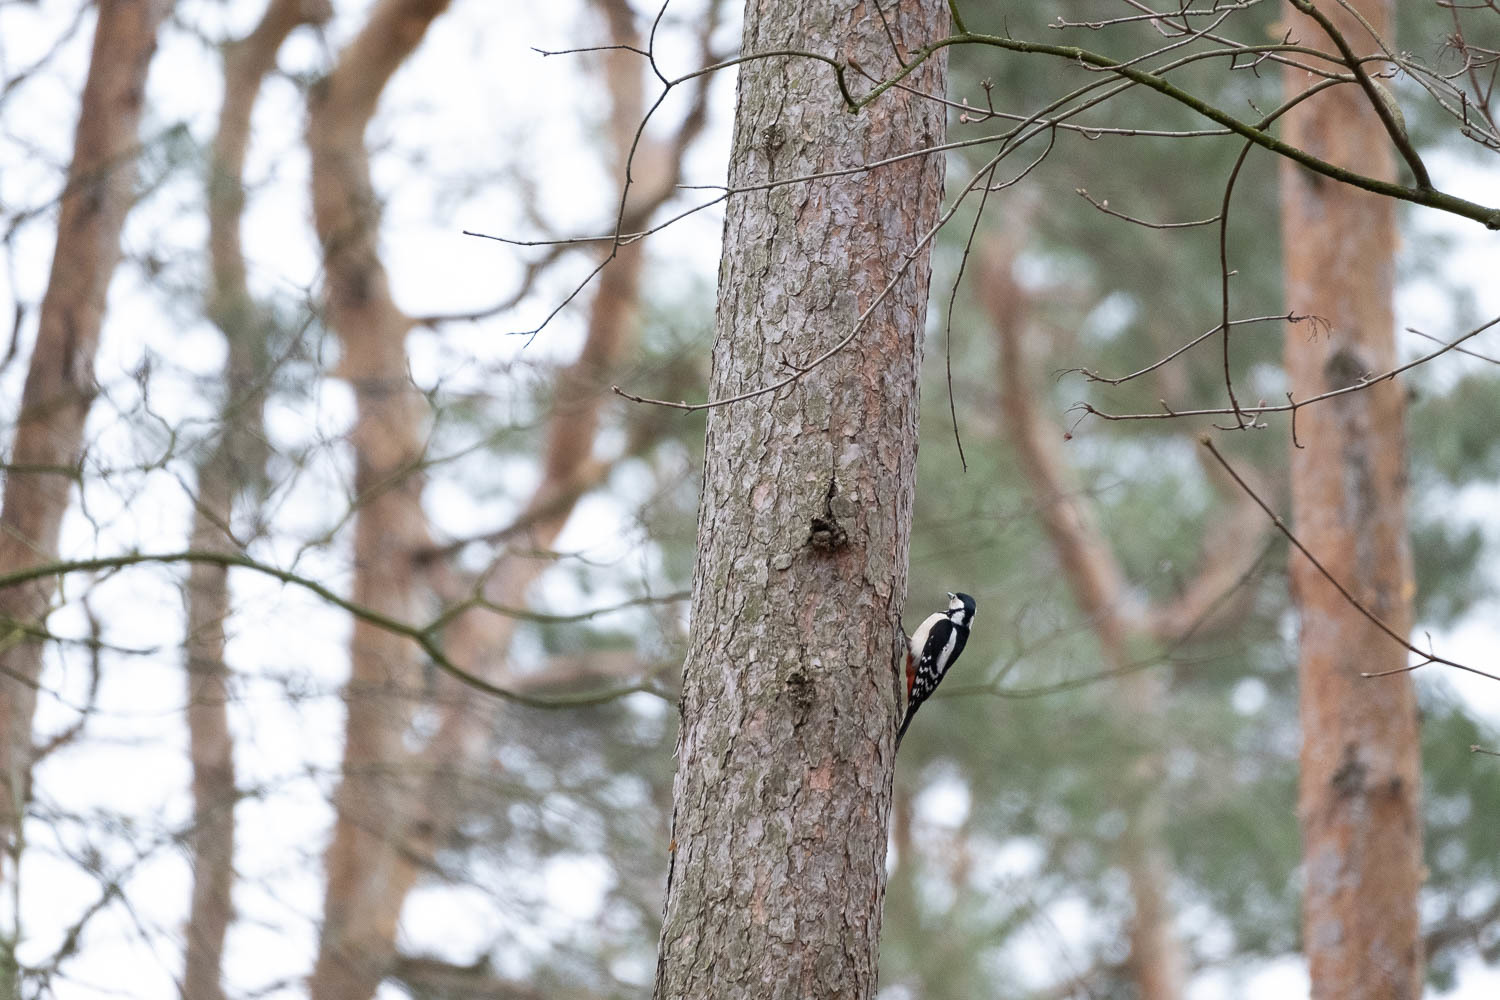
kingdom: Animalia
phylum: Chordata
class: Aves
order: Piciformes
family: Picidae
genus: Dendrocopos
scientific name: Dendrocopos major
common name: Great spotted woodpecker
